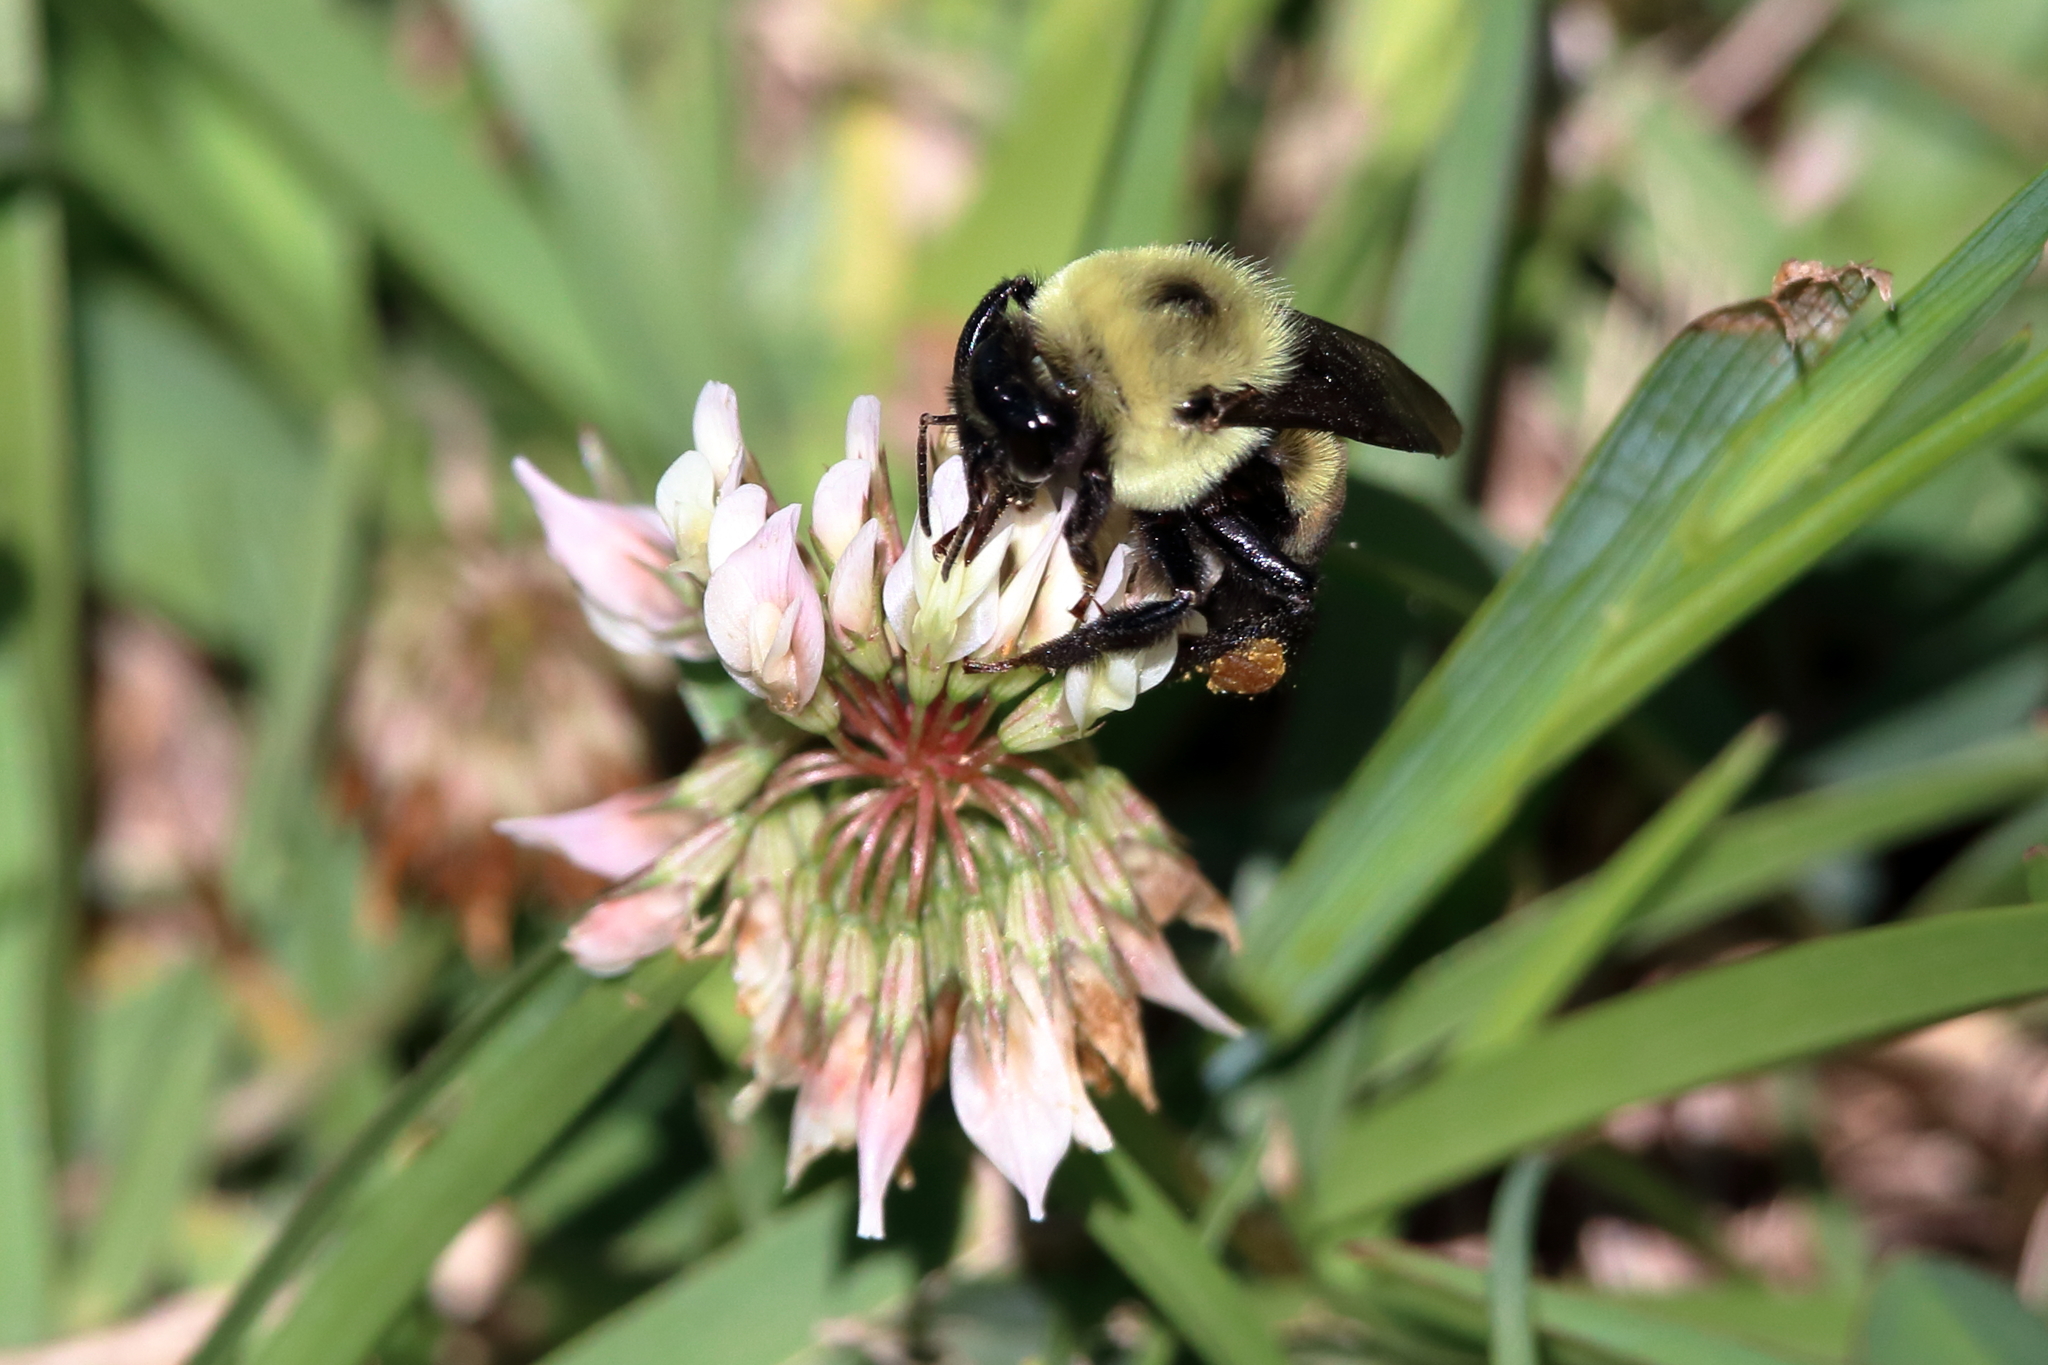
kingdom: Animalia
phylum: Arthropoda
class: Insecta
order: Hymenoptera
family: Apidae
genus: Bombus
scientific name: Bombus griseocollis
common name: Brown-belted bumble bee
